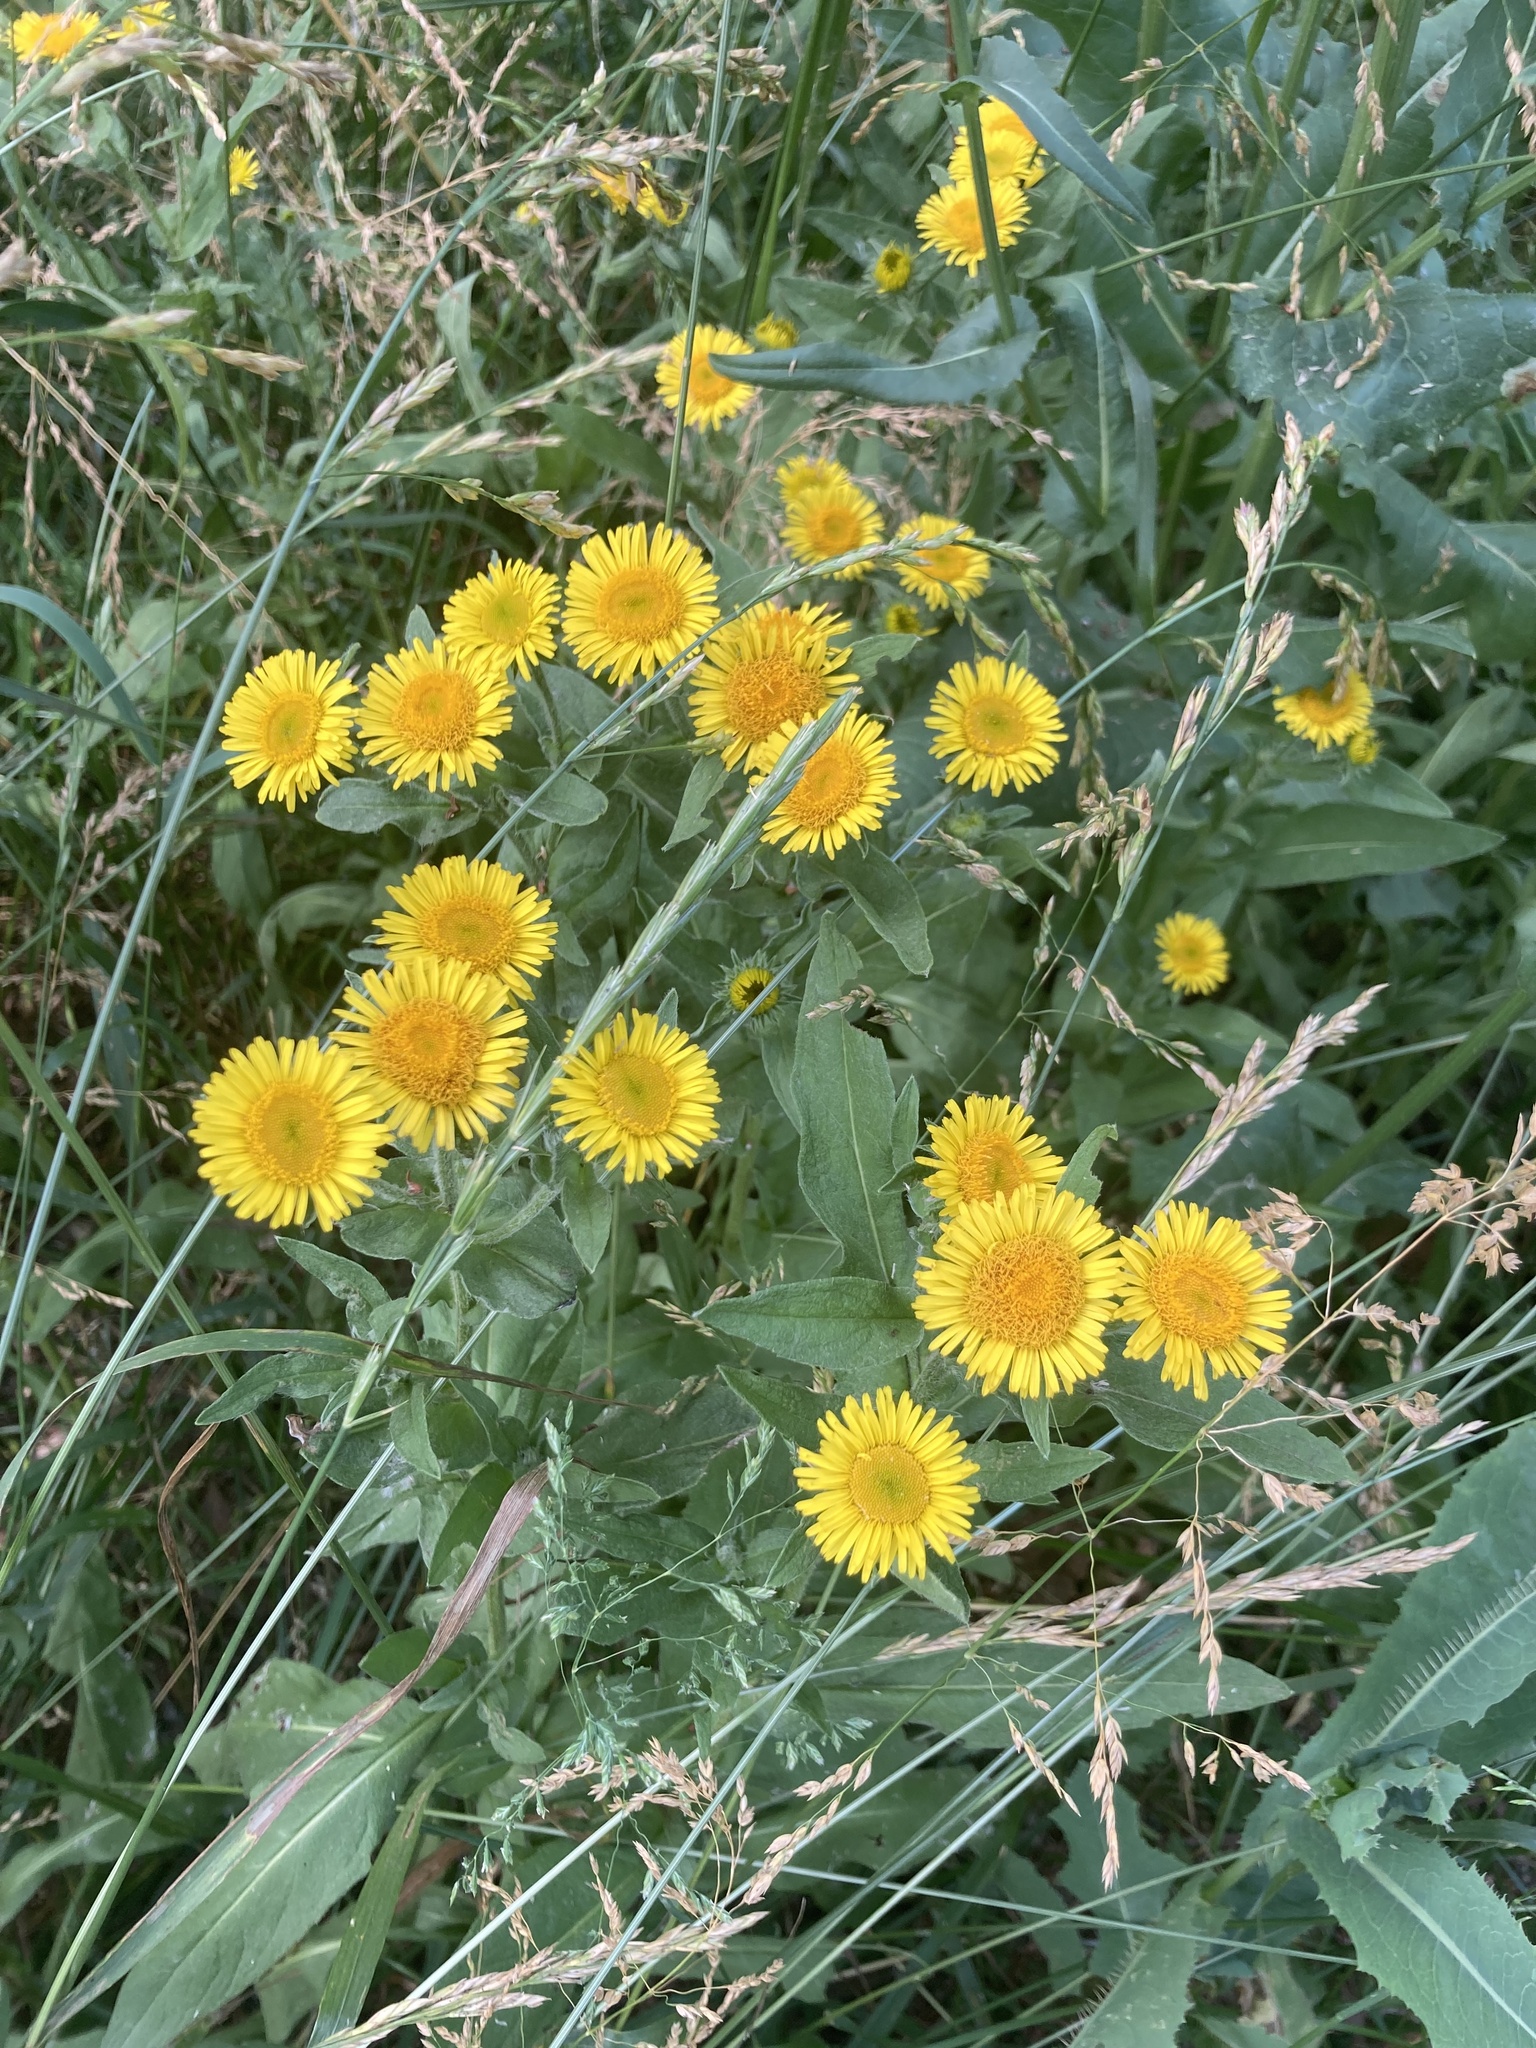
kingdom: Plantae
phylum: Tracheophyta
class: Magnoliopsida
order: Asterales
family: Asteraceae
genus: Pentanema
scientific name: Pentanema britannicum
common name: British elecampane
